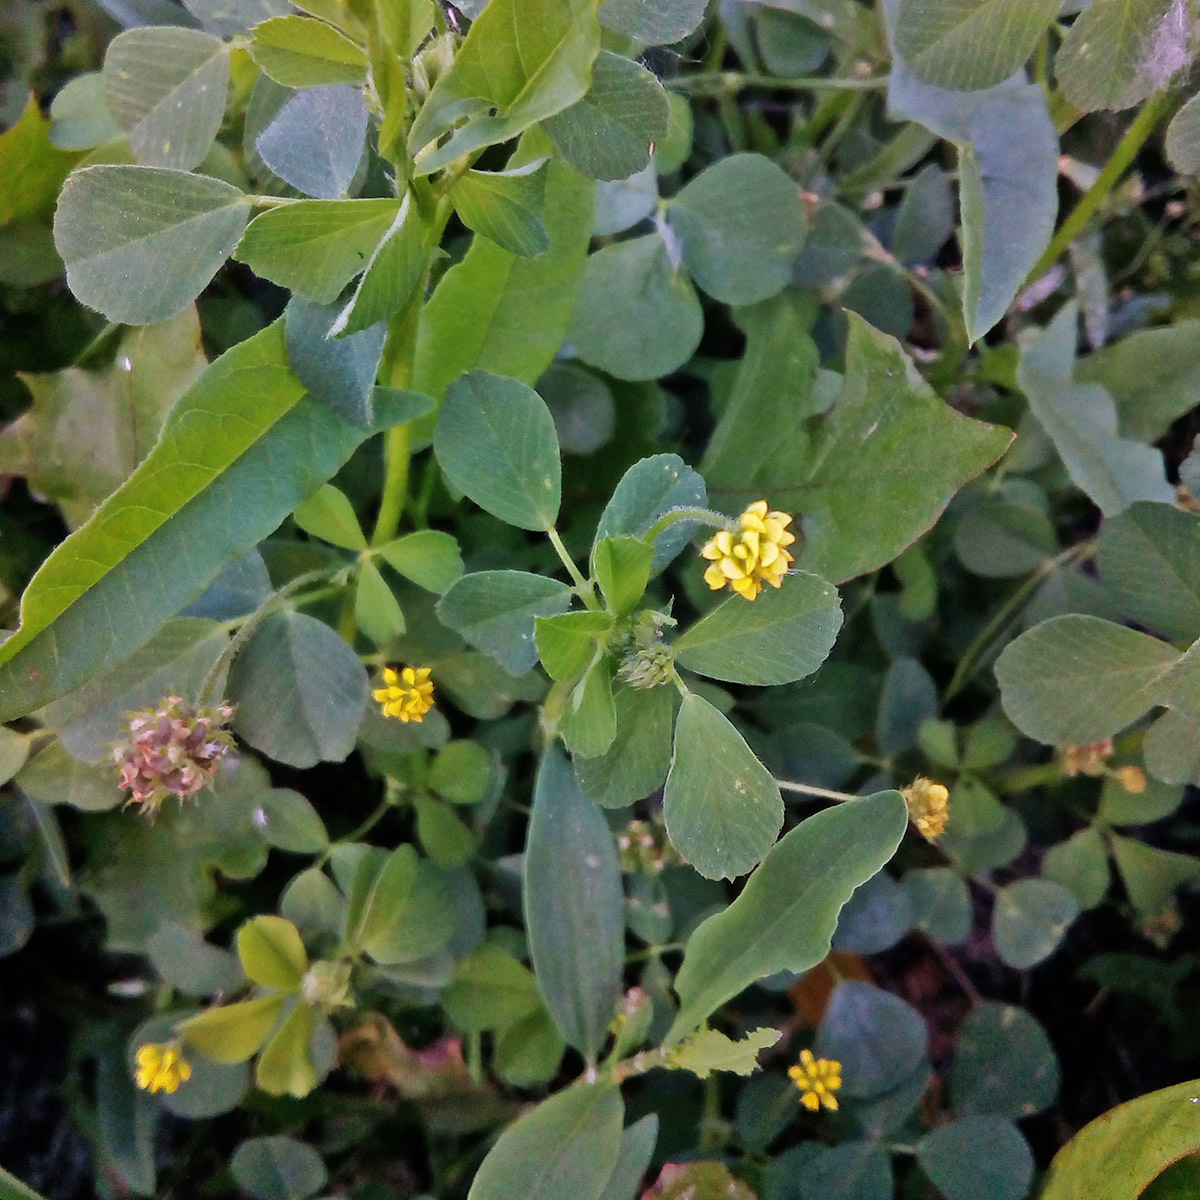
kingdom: Plantae
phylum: Tracheophyta
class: Magnoliopsida
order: Fabales
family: Fabaceae
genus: Medicago
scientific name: Medicago lupulina
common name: Black medick
